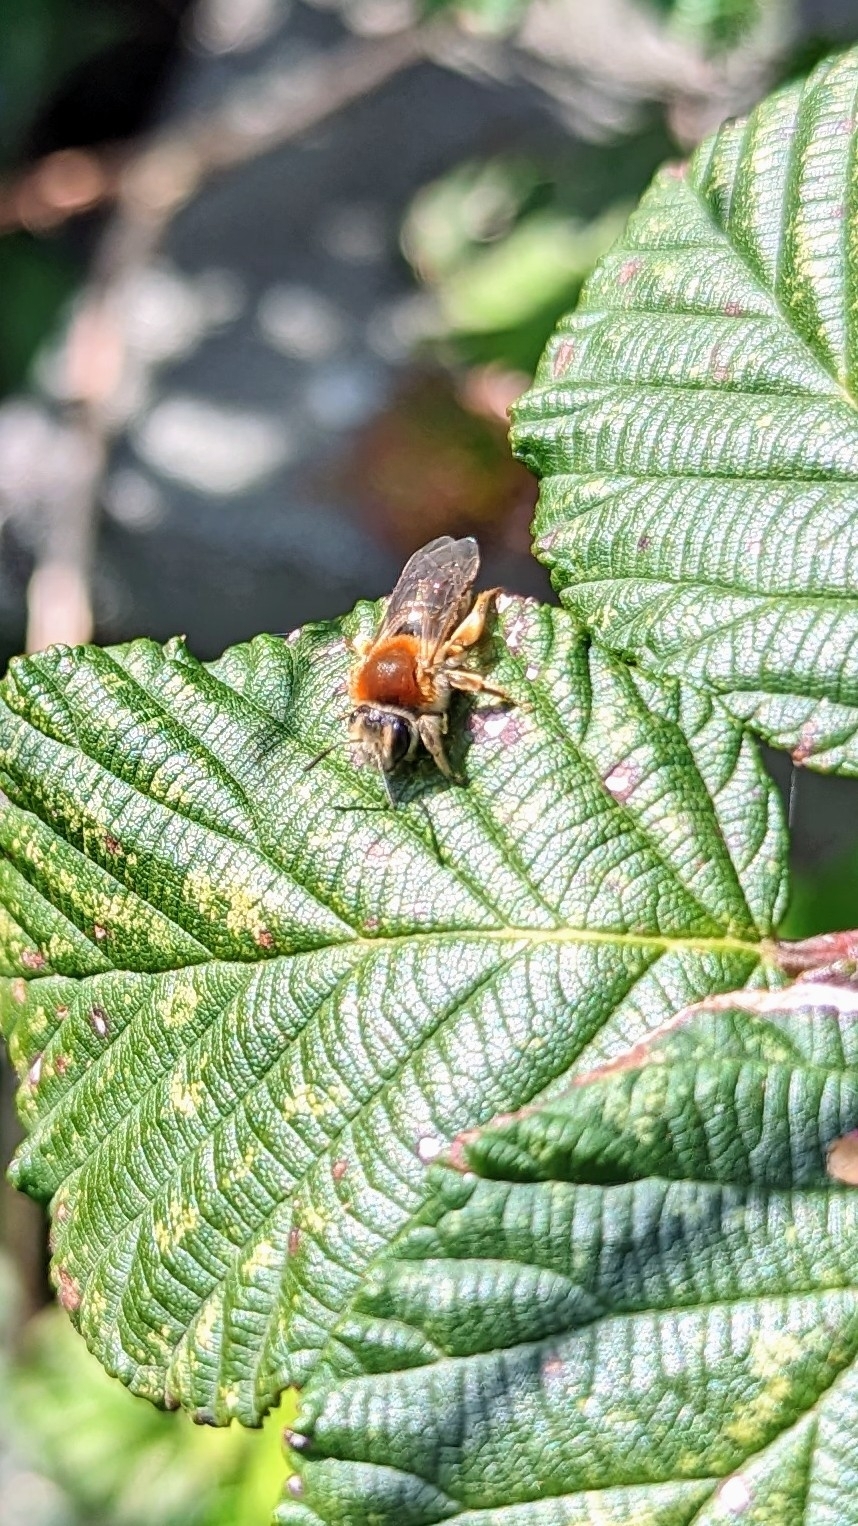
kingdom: Animalia
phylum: Arthropoda
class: Insecta
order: Hymenoptera
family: Andrenidae
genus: Andrena
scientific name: Andrena haemorrhoa
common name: Early mining bee
